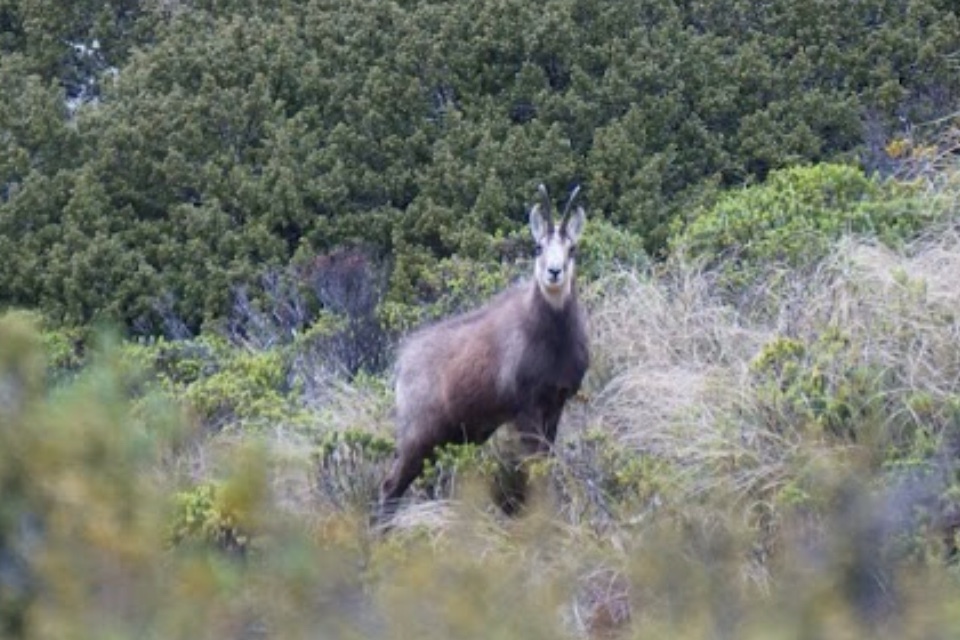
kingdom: Animalia
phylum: Chordata
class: Mammalia
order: Artiodactyla
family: Bovidae
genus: Rupicapra
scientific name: Rupicapra rupicapra
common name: Chamois
